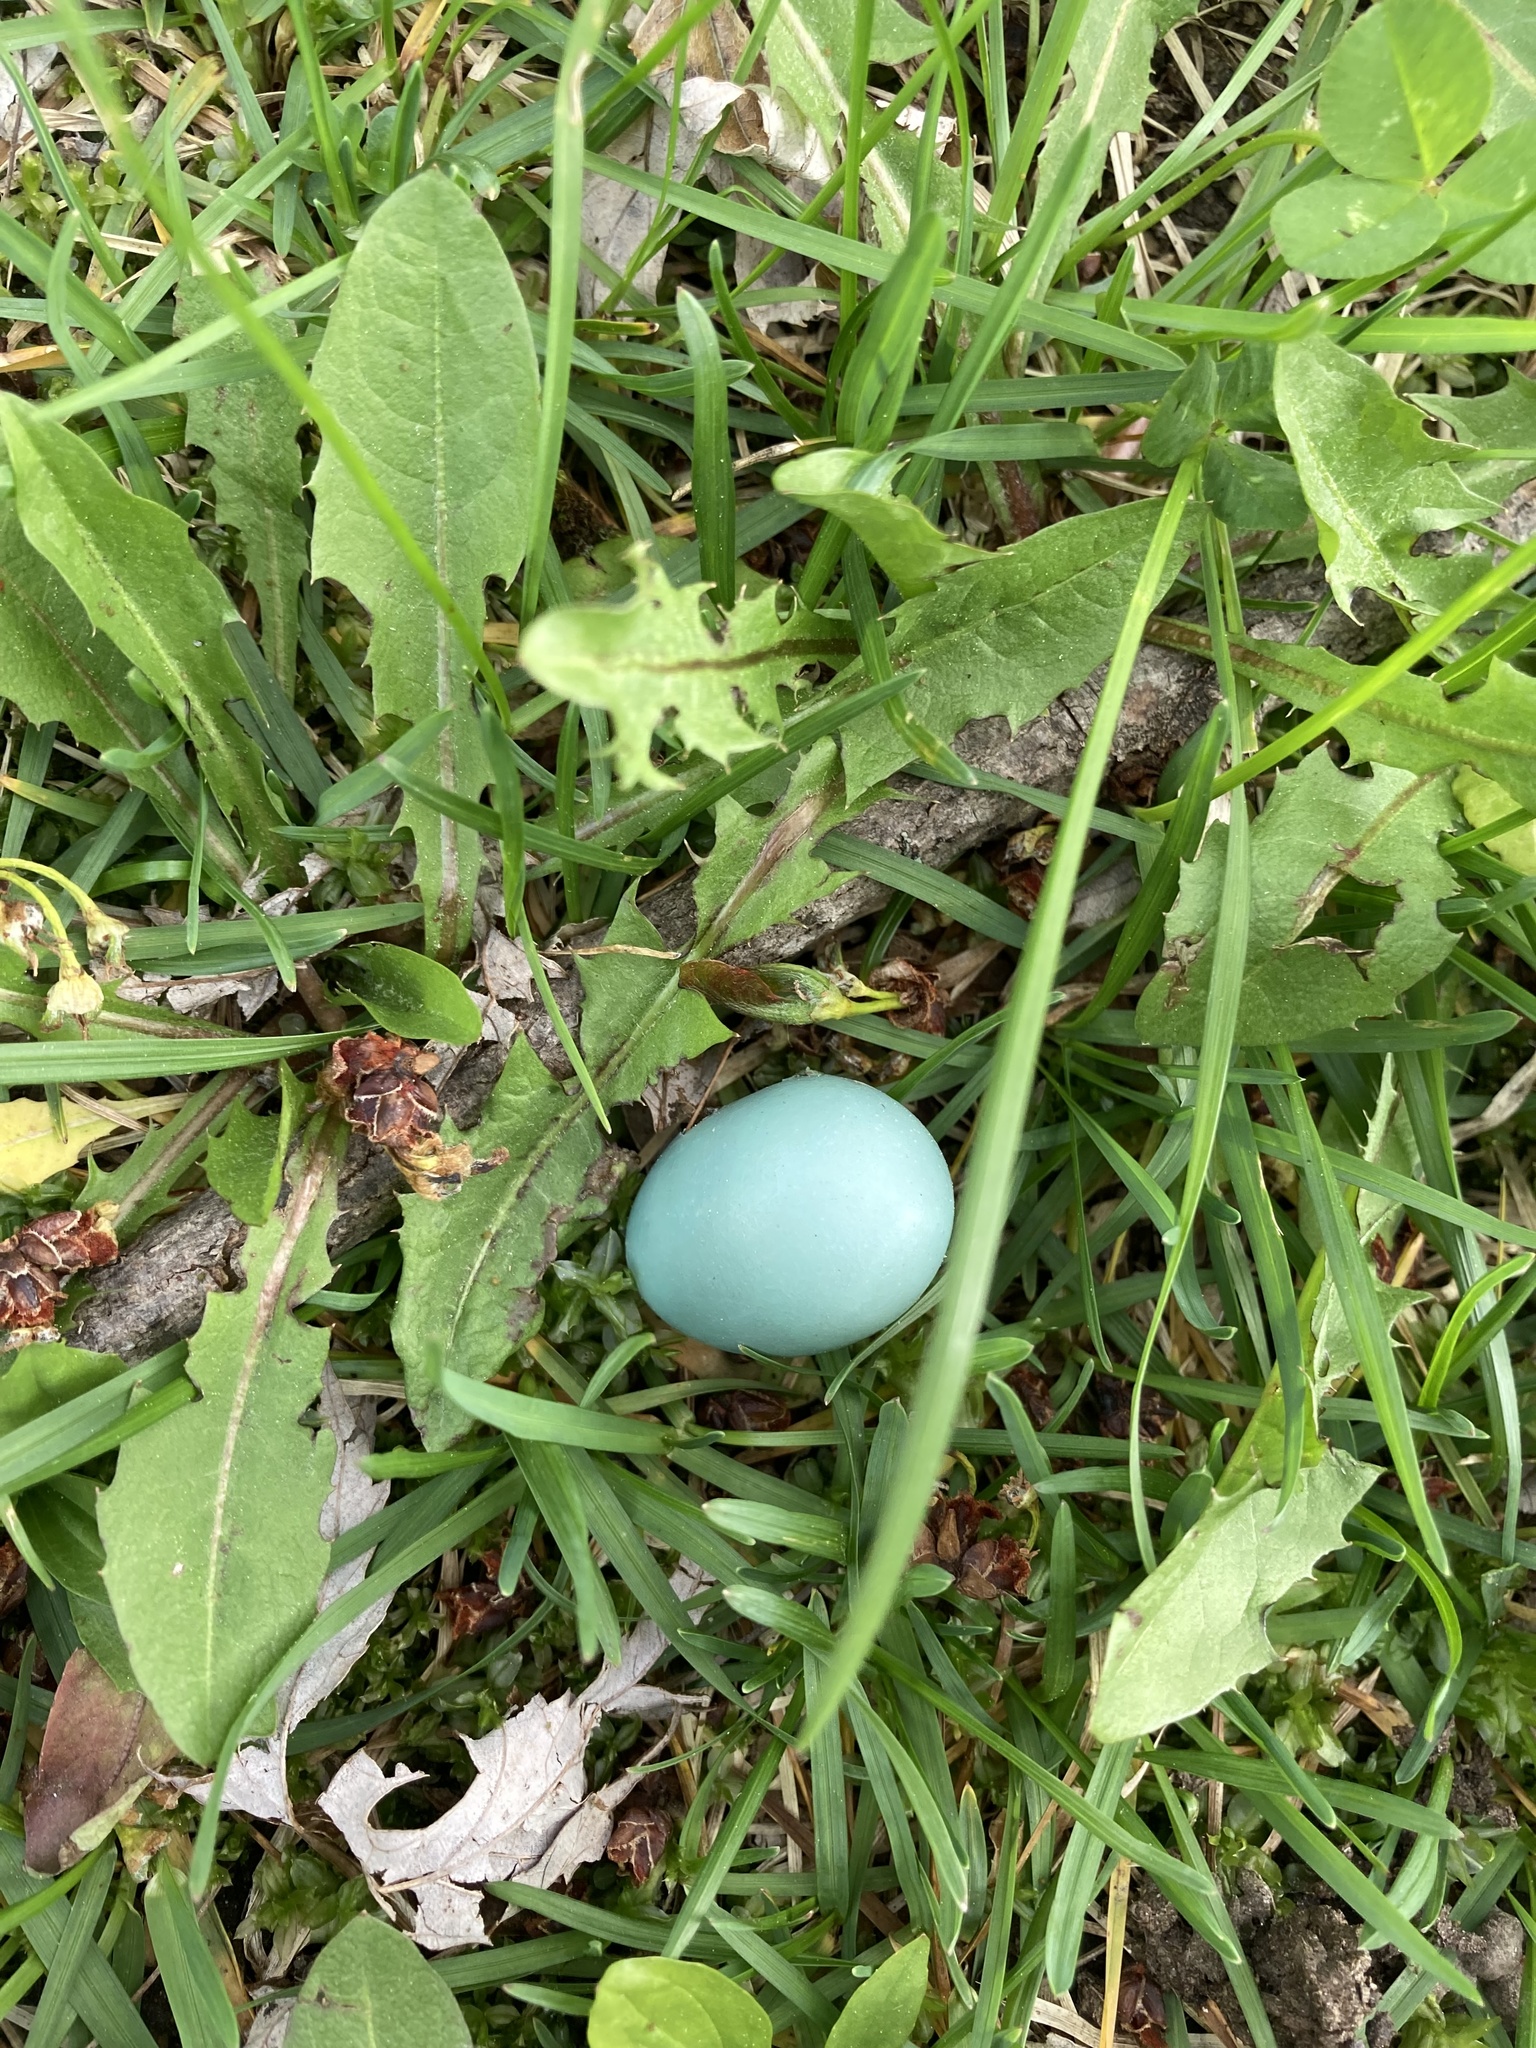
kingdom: Animalia
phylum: Chordata
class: Aves
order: Passeriformes
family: Turdidae
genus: Turdus
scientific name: Turdus migratorius
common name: American robin
